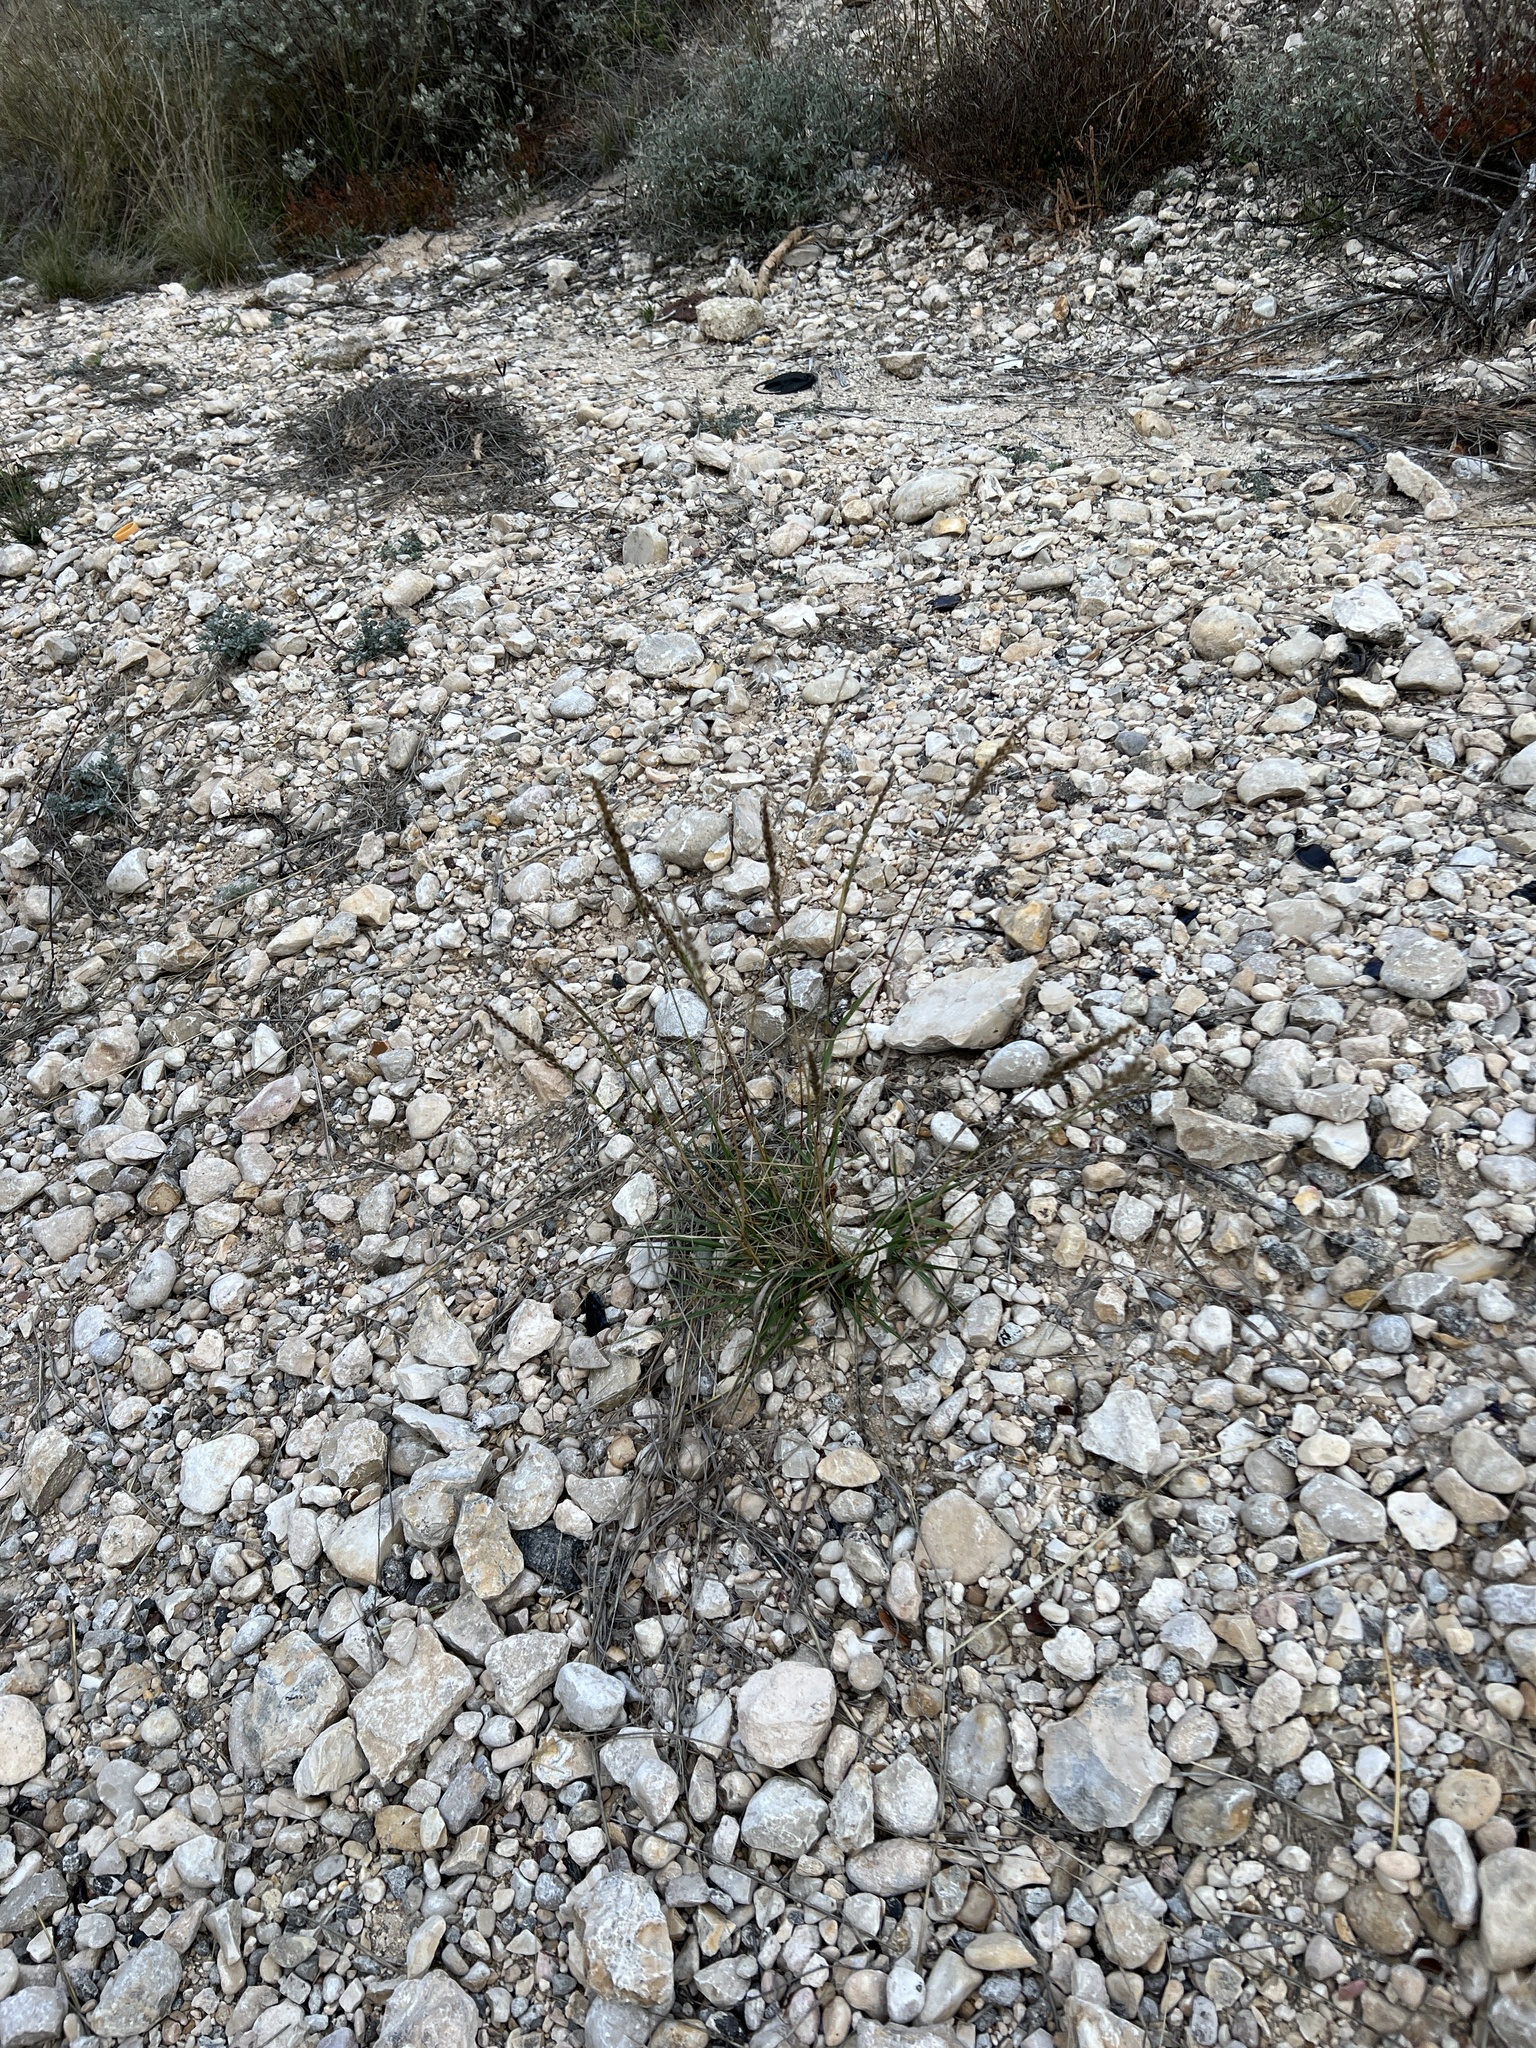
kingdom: Plantae
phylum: Tracheophyta
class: Liliopsida
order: Poales
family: Poaceae
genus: Pappophorum
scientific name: Pappophorum bicolor
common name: Pink pappus grass
